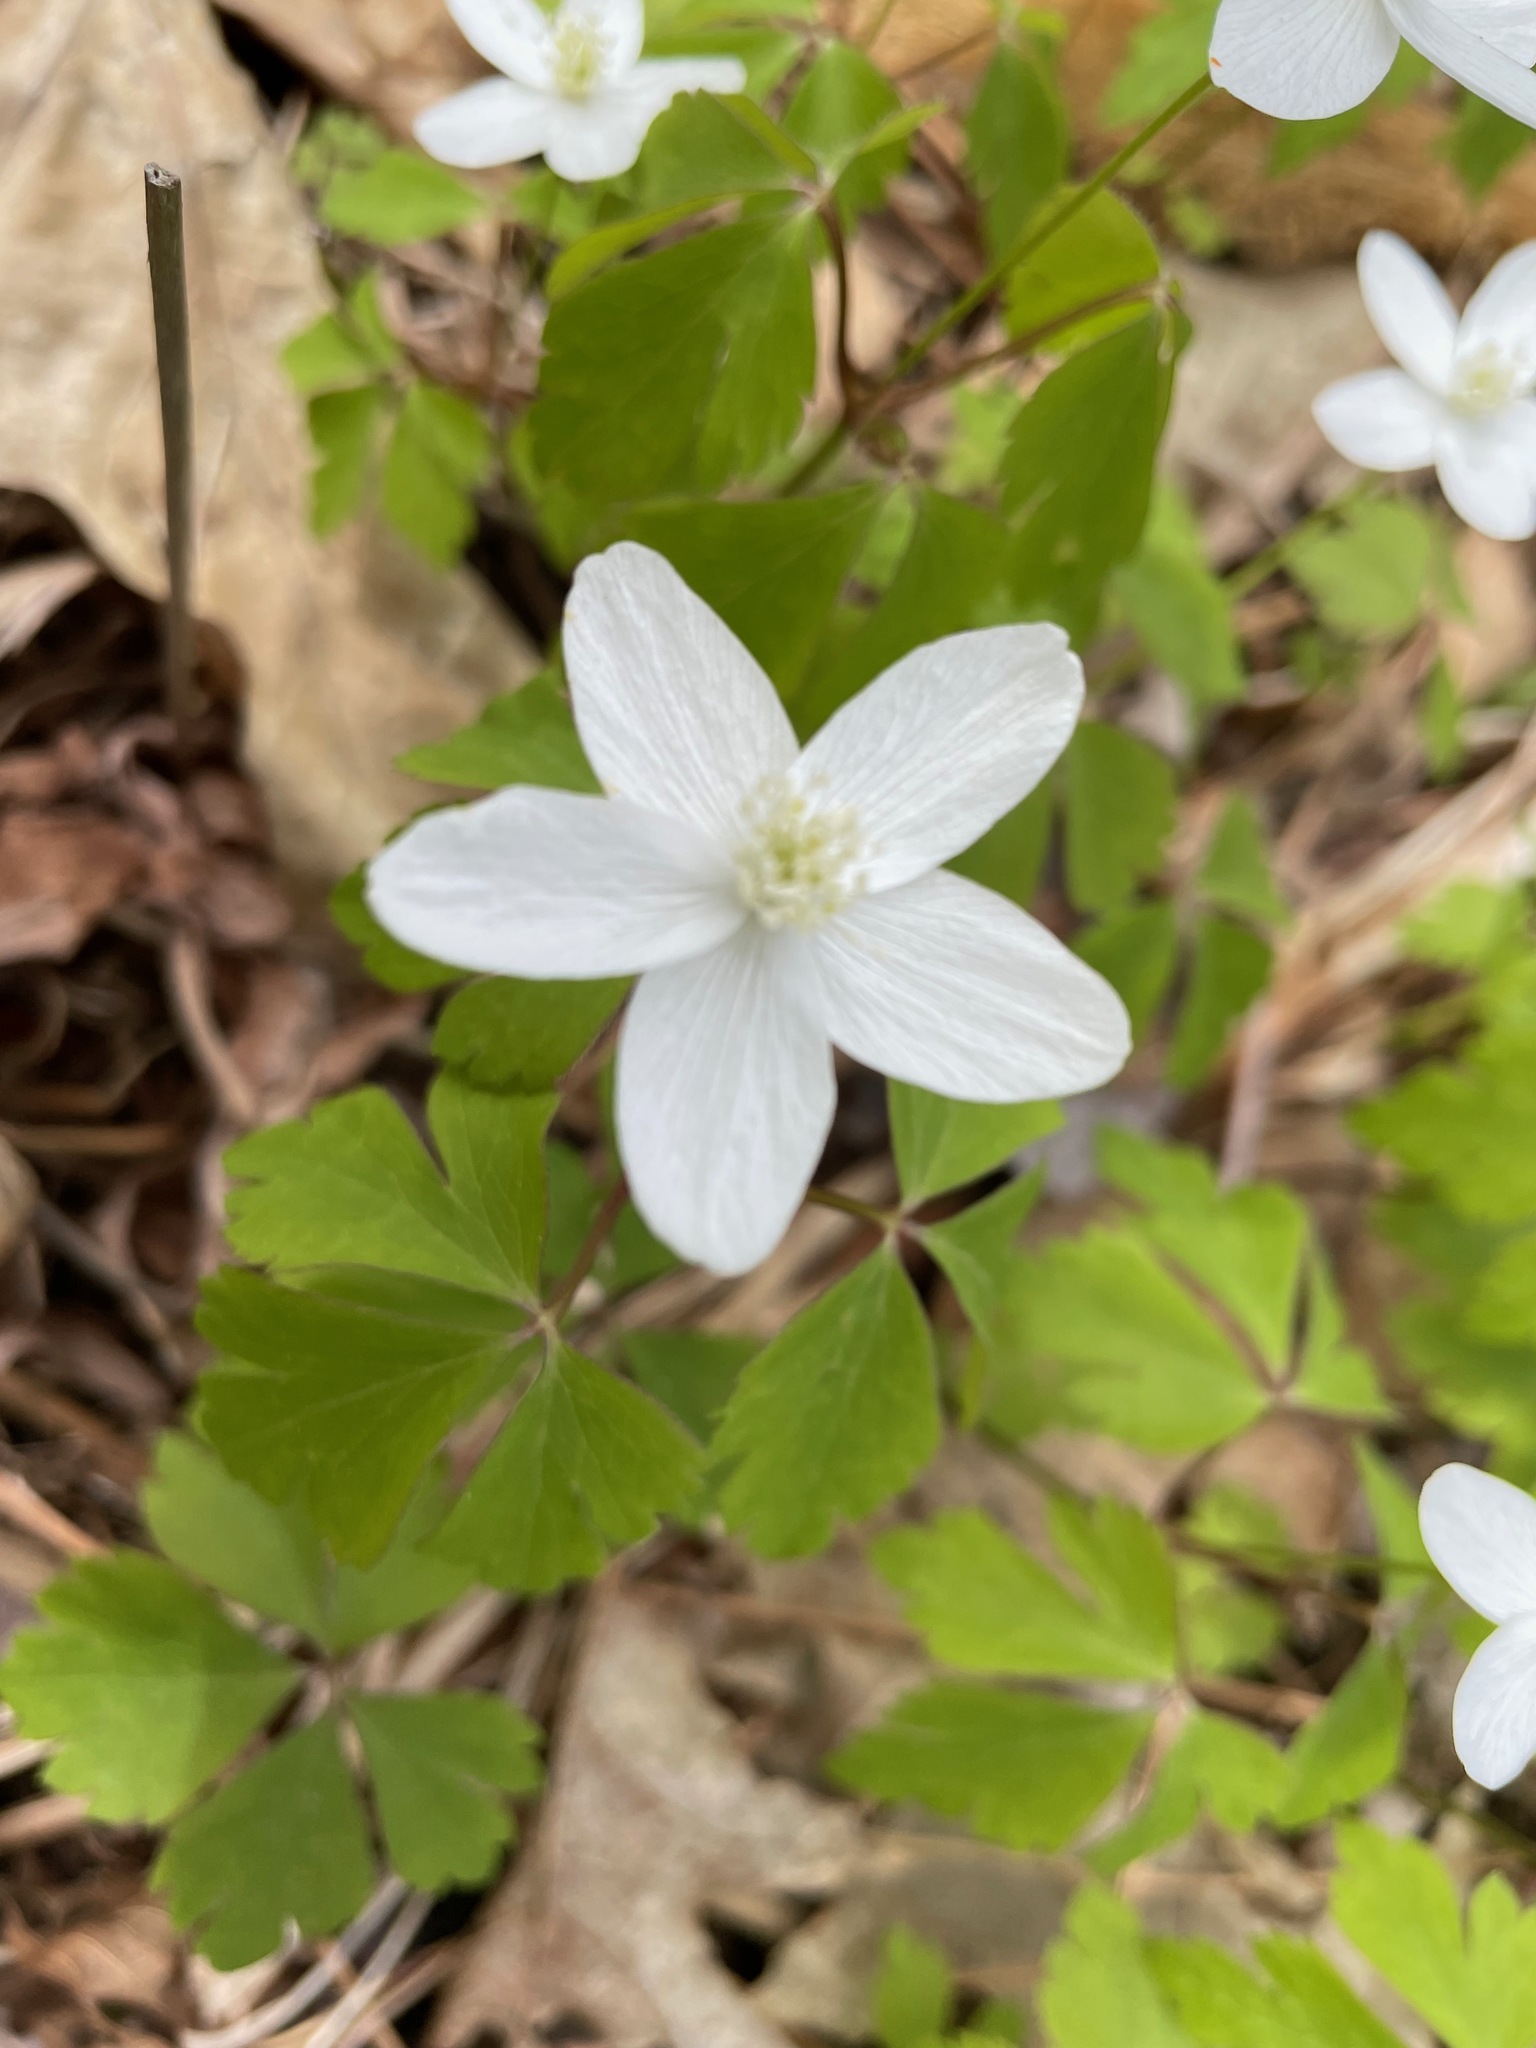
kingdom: Plantae
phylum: Tracheophyta
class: Magnoliopsida
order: Ranunculales
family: Ranunculaceae
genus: Anemone
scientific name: Anemone quinquefolia
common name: Wood anemone
